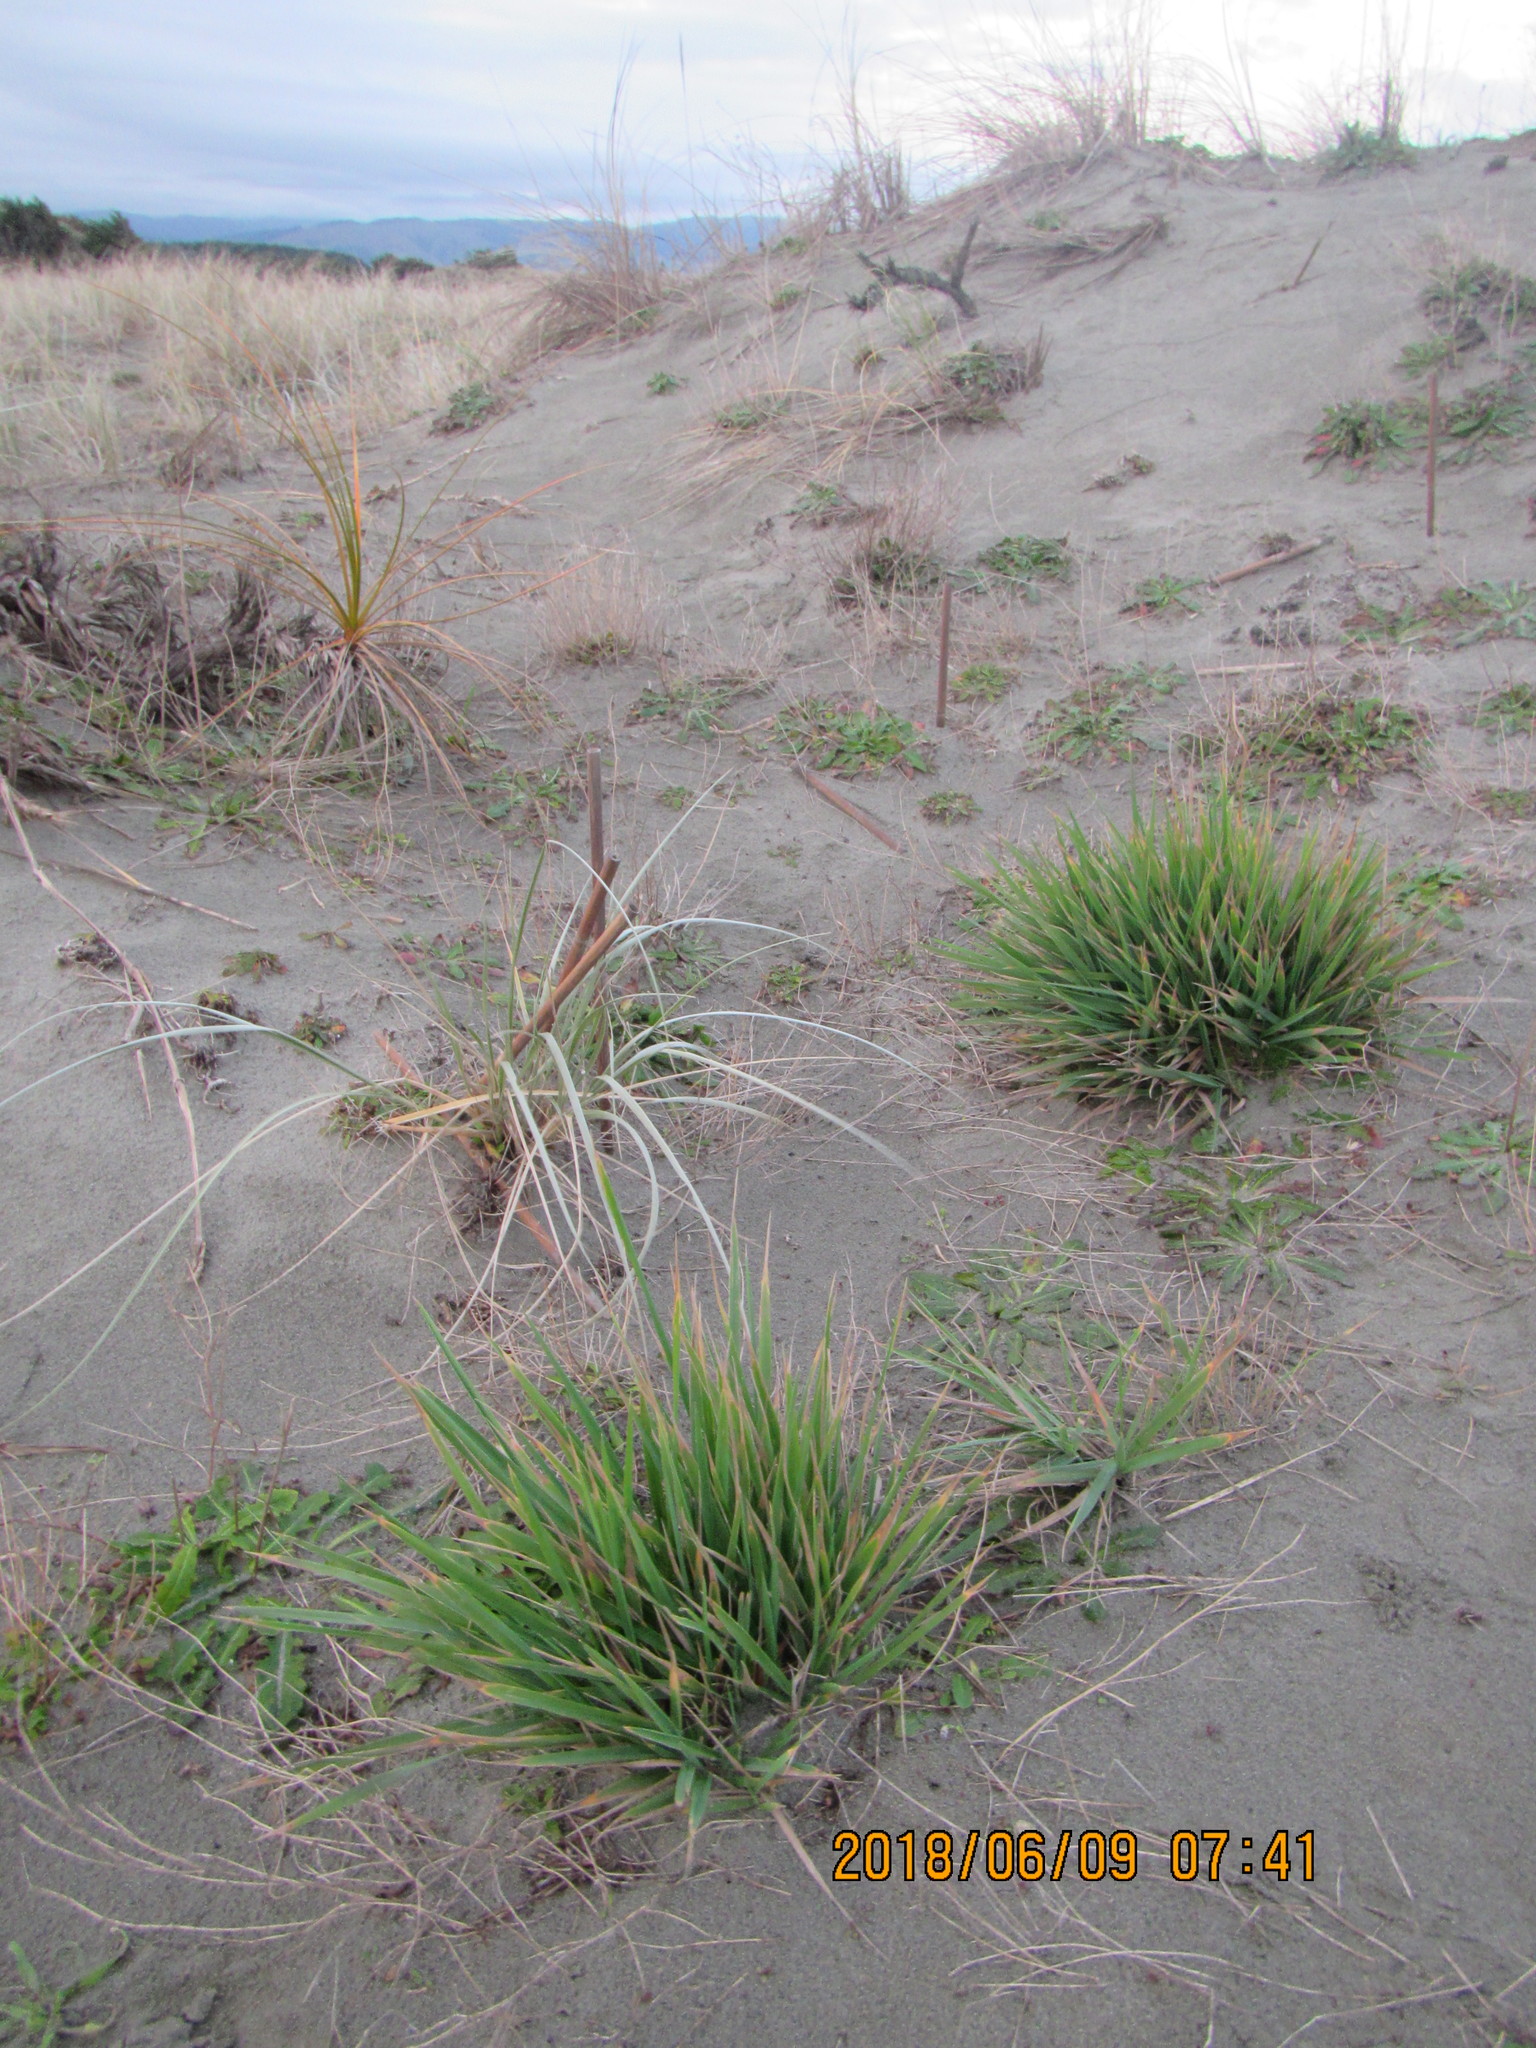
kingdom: Plantae
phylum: Tracheophyta
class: Liliopsida
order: Poales
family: Poaceae
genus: Lachnagrostis
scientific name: Lachnagrostis billardierei
